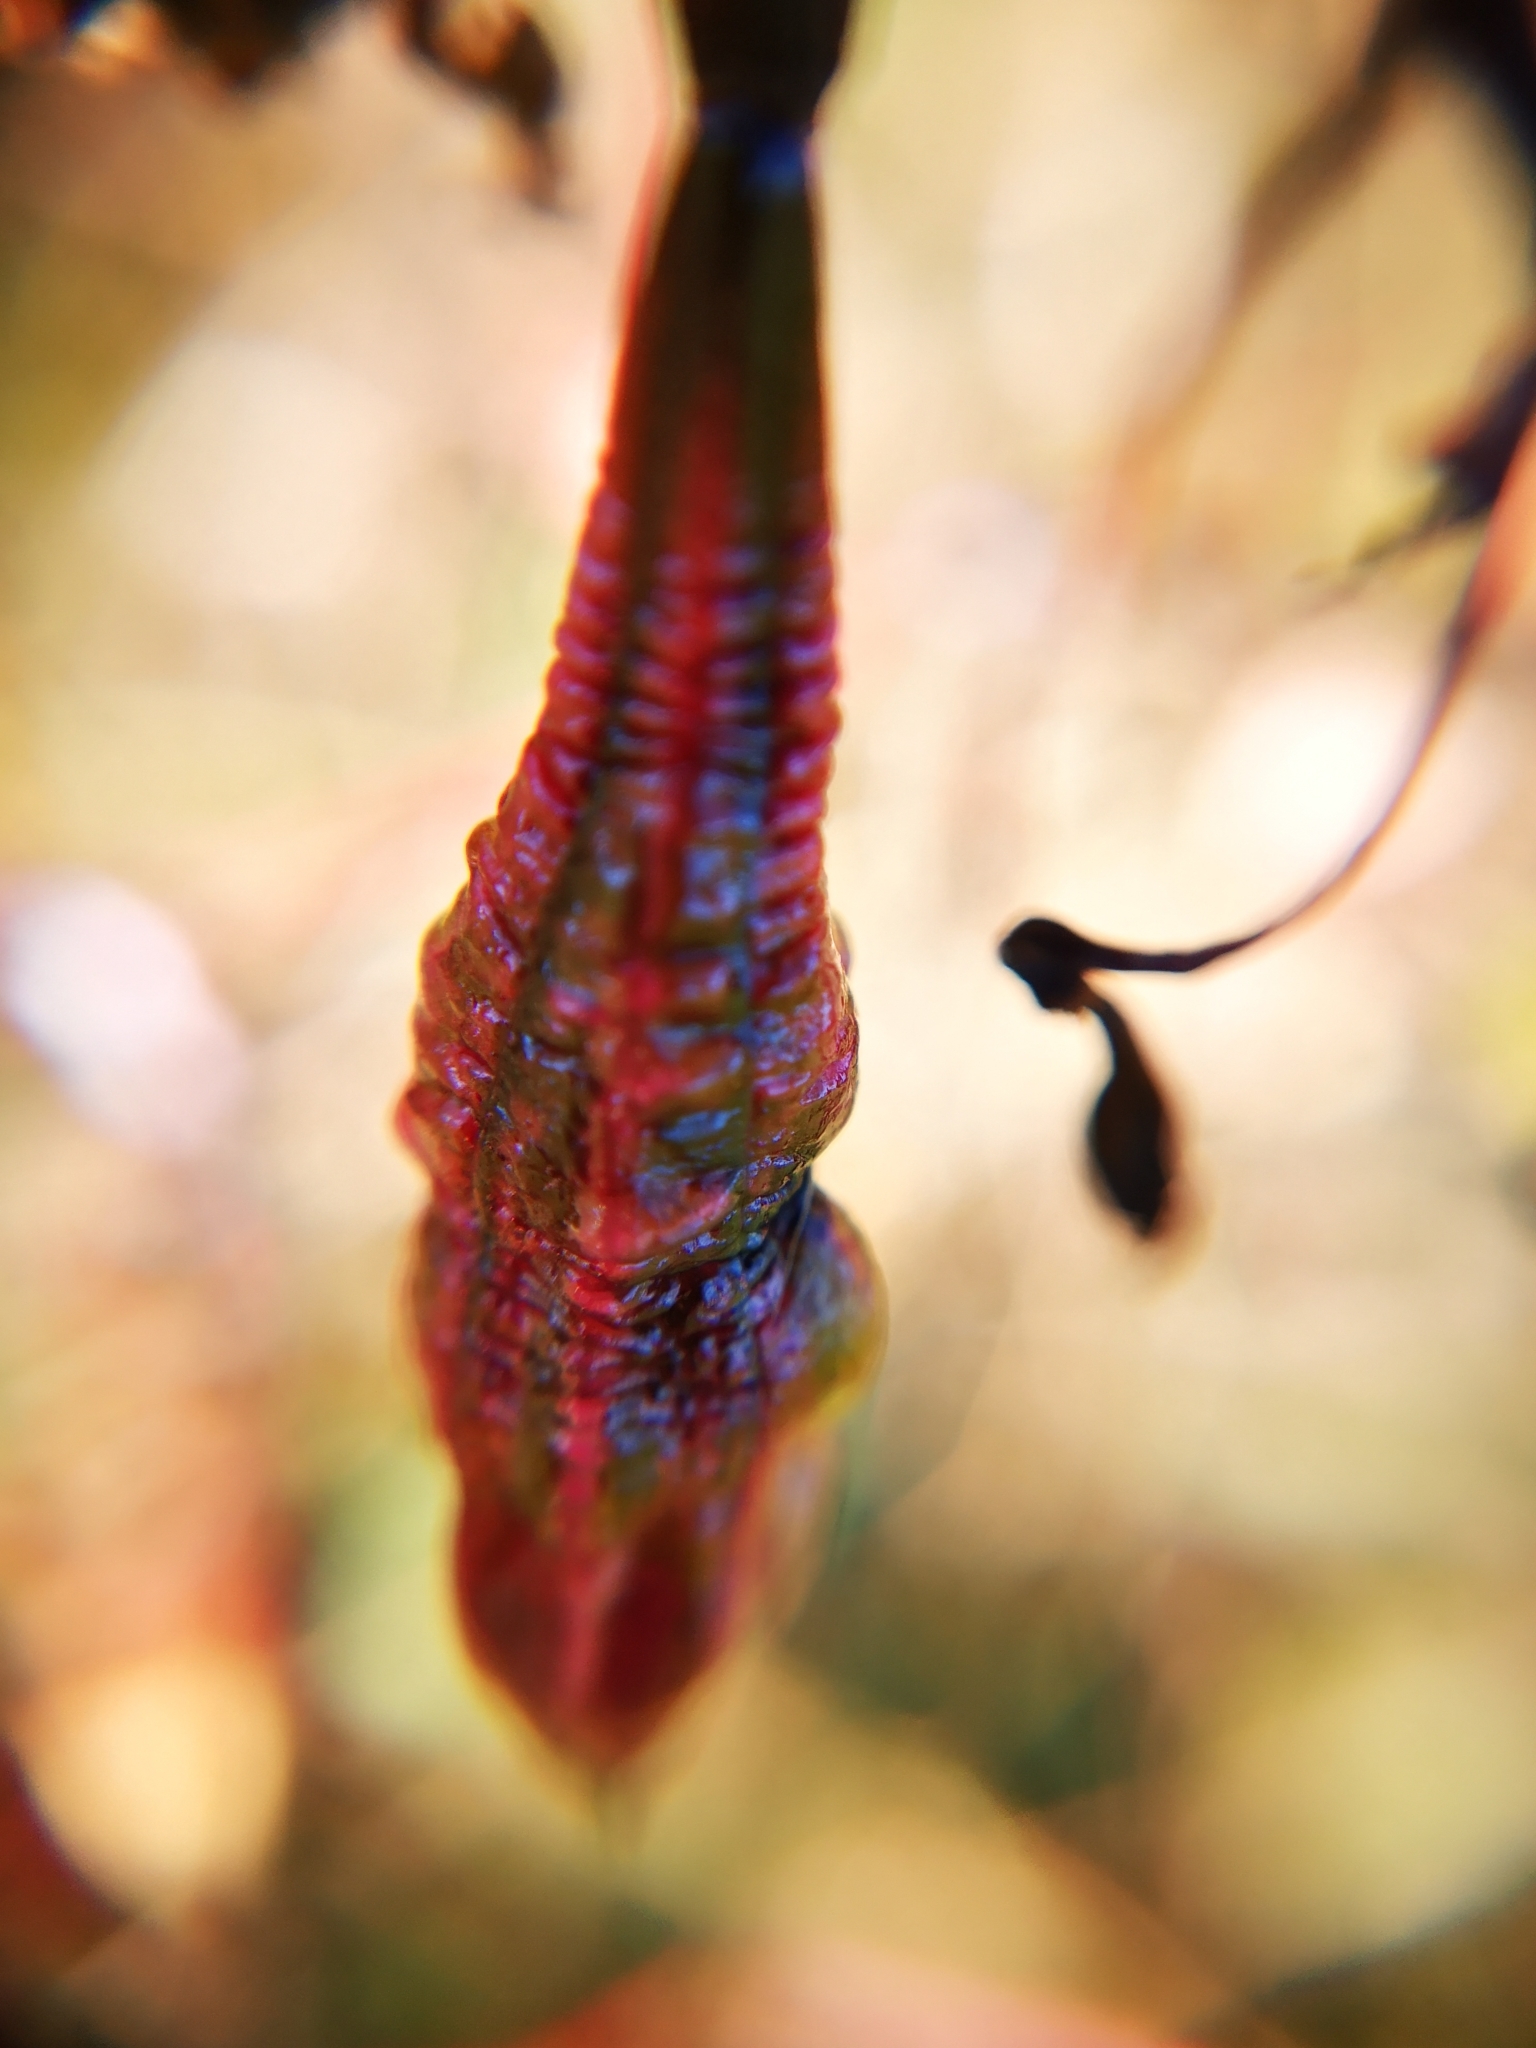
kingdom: Plantae
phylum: Tracheophyta
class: Magnoliopsida
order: Ericales
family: Balsaminaceae
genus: Impatiens
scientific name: Impatiens glandulifera
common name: Himalayan balsam
